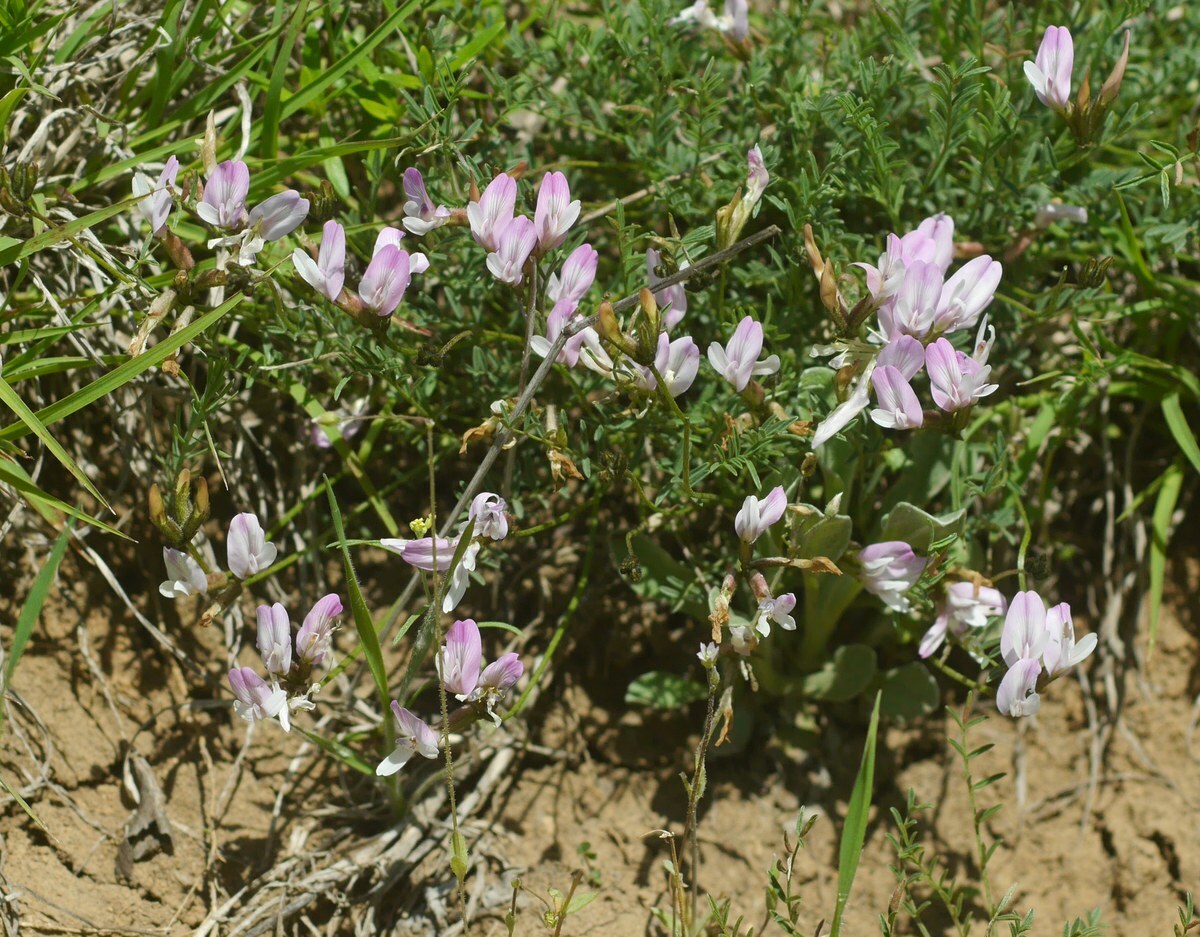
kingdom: Plantae
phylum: Tracheophyta
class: Magnoliopsida
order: Fabales
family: Fabaceae
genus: Astragalus
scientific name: Astragalus corniculatus
